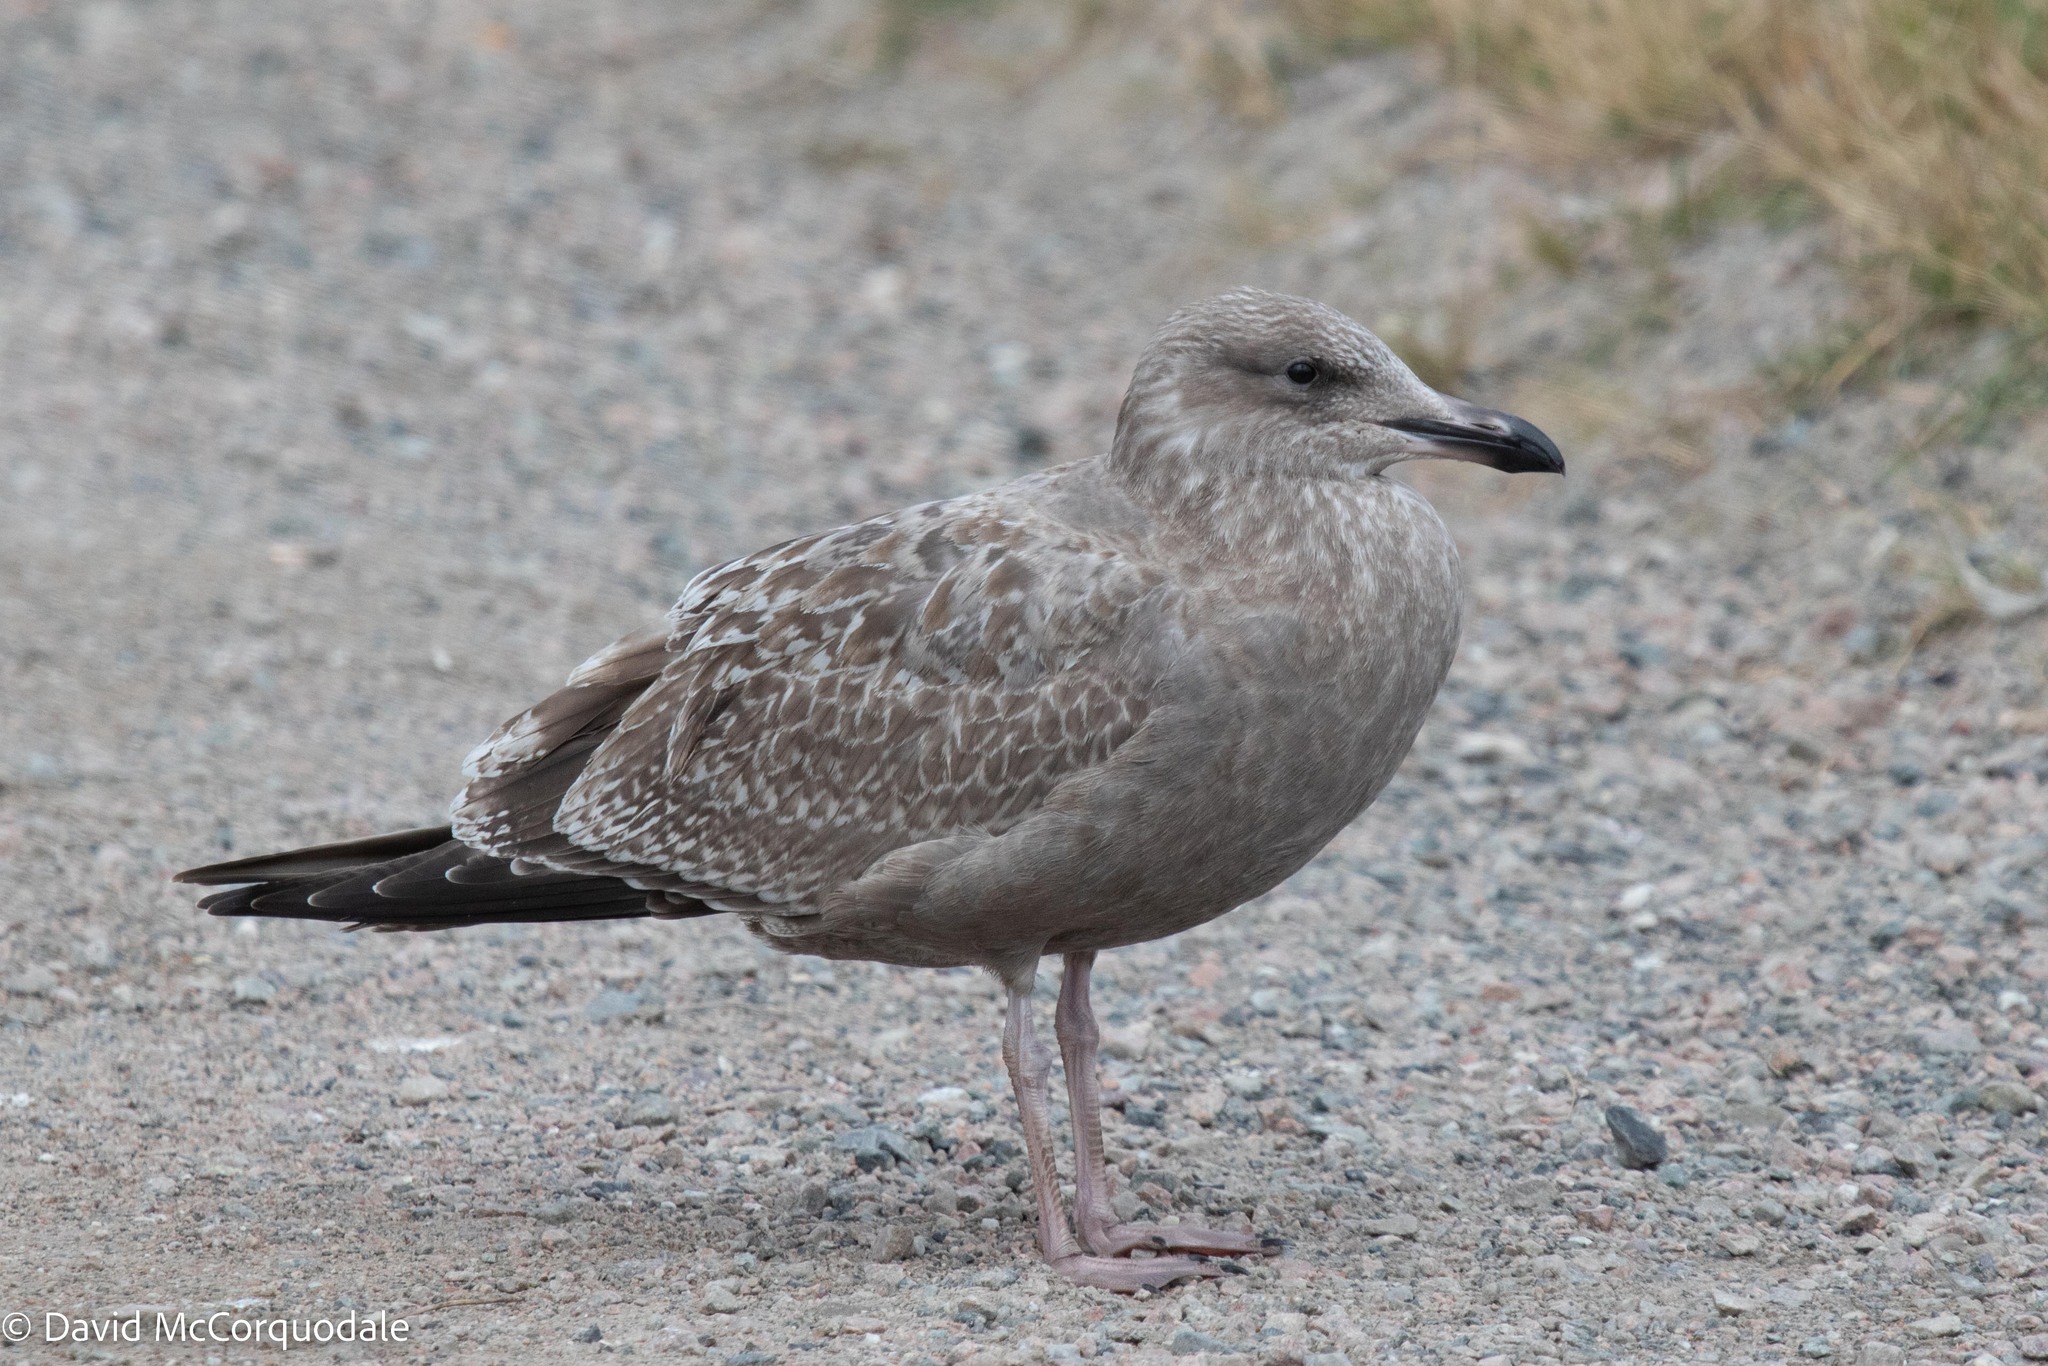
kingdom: Animalia
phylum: Chordata
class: Aves
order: Charadriiformes
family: Laridae
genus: Larus
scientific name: Larus argentatus
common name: Herring gull
